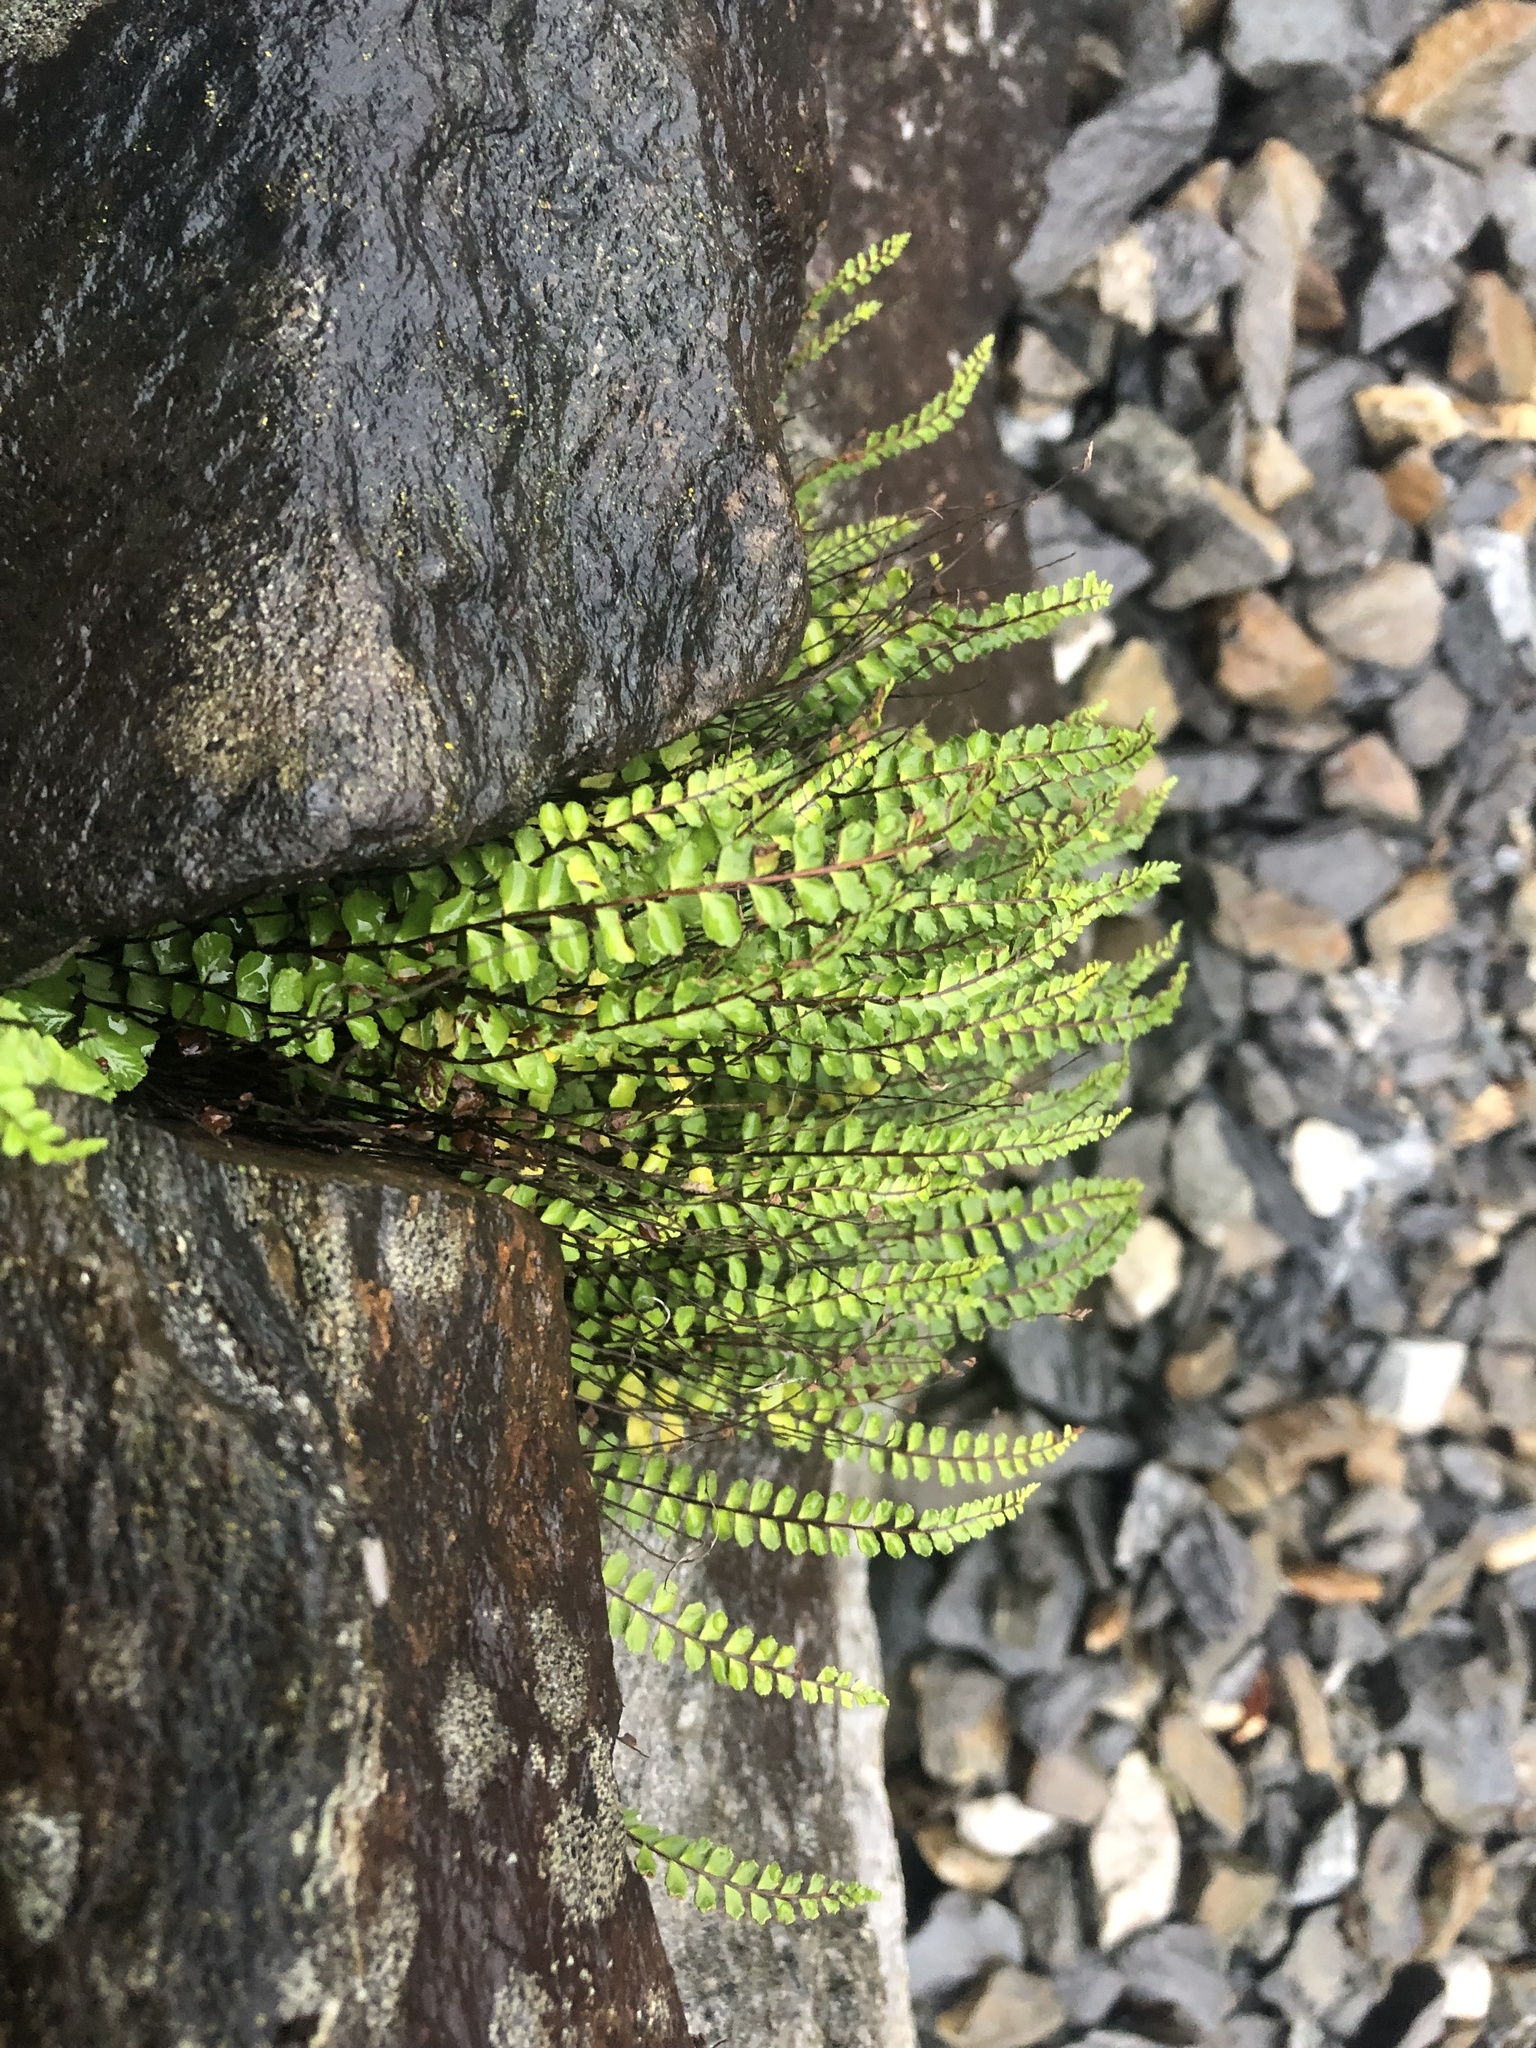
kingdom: Plantae
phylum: Tracheophyta
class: Polypodiopsida
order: Polypodiales
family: Aspleniaceae
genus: Asplenium
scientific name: Asplenium trichomanes
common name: Maidenhair spleenwort
